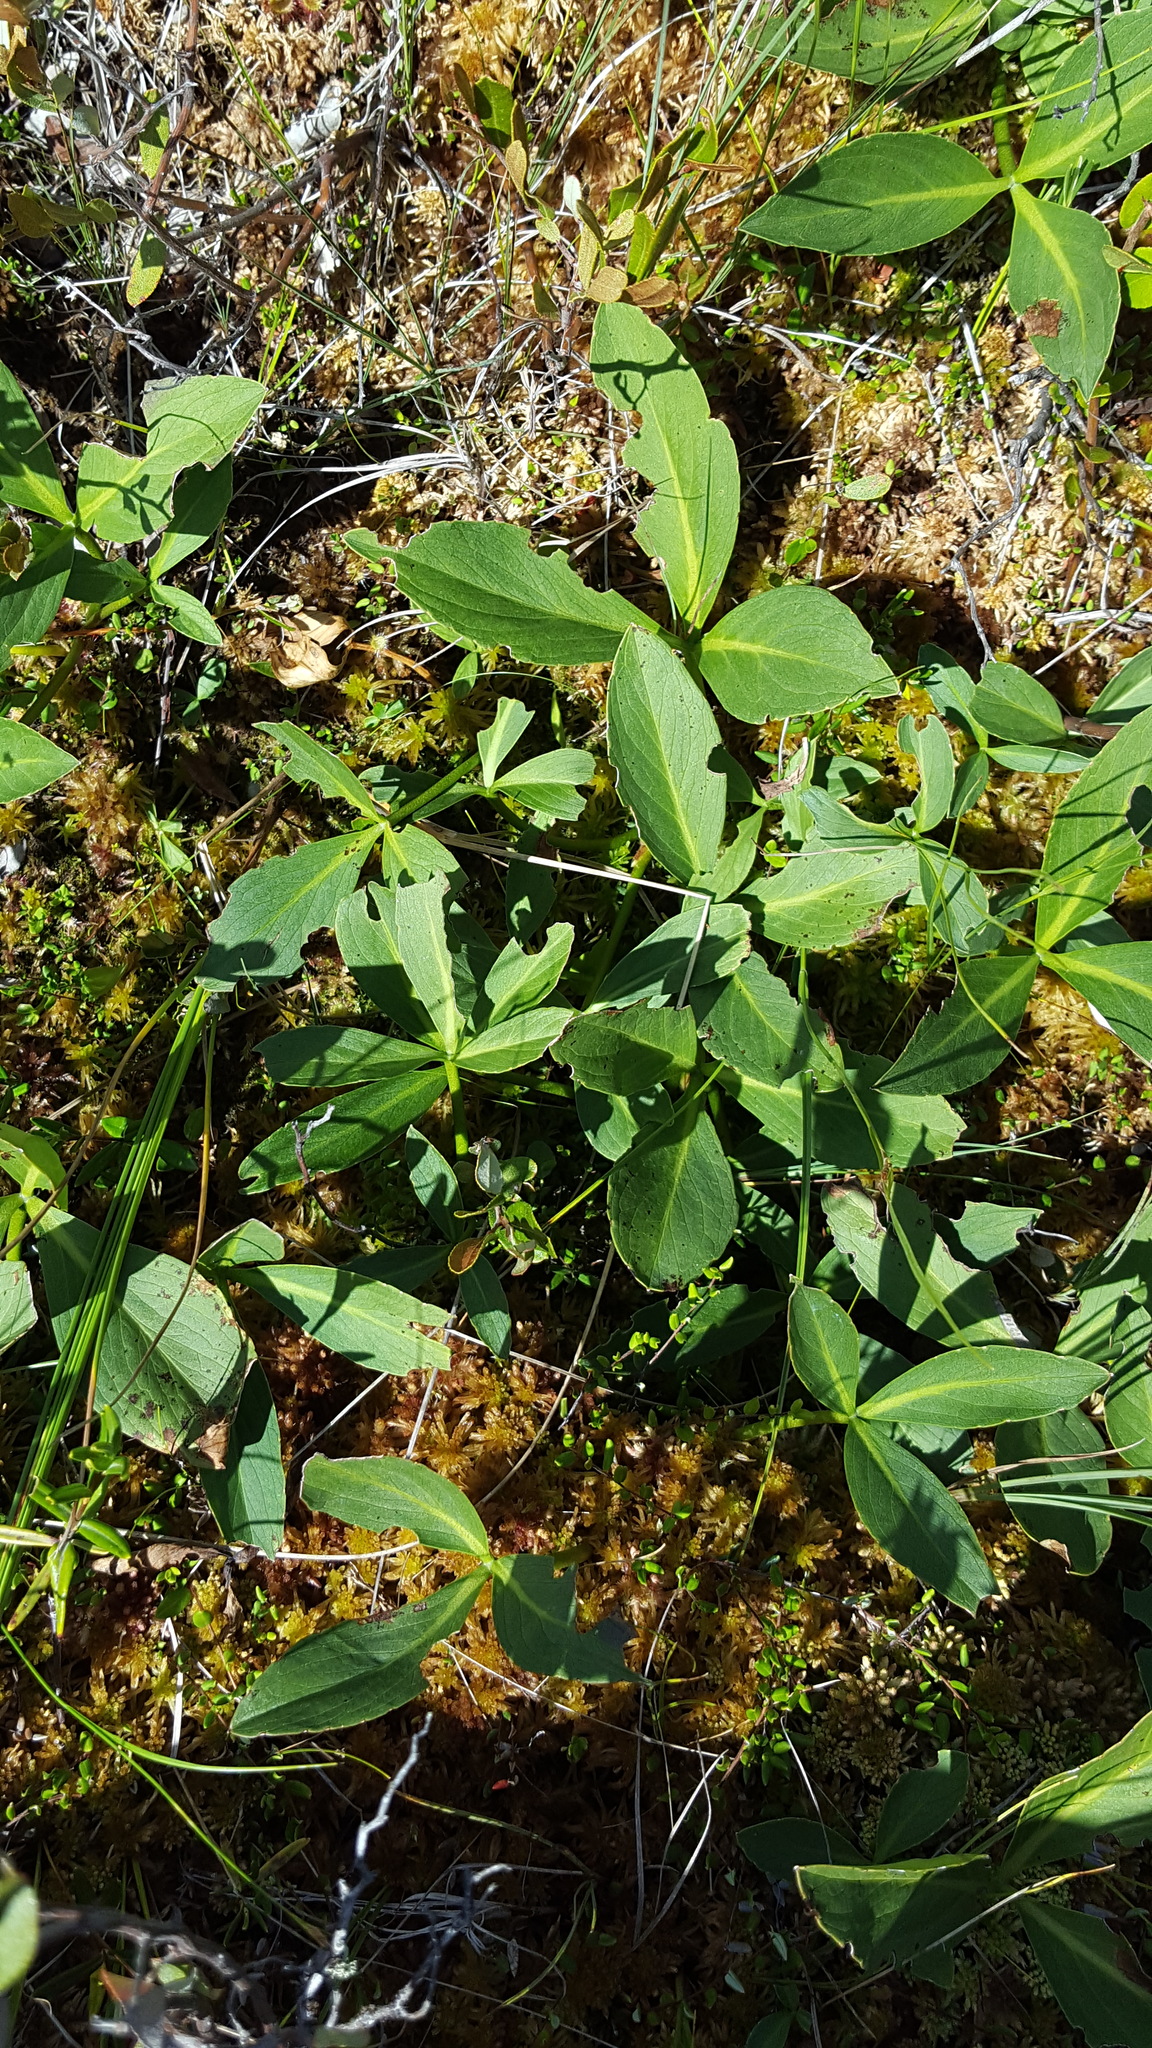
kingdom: Plantae
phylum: Tracheophyta
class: Magnoliopsida
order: Asterales
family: Menyanthaceae
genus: Menyanthes
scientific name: Menyanthes trifoliata
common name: Bogbean
